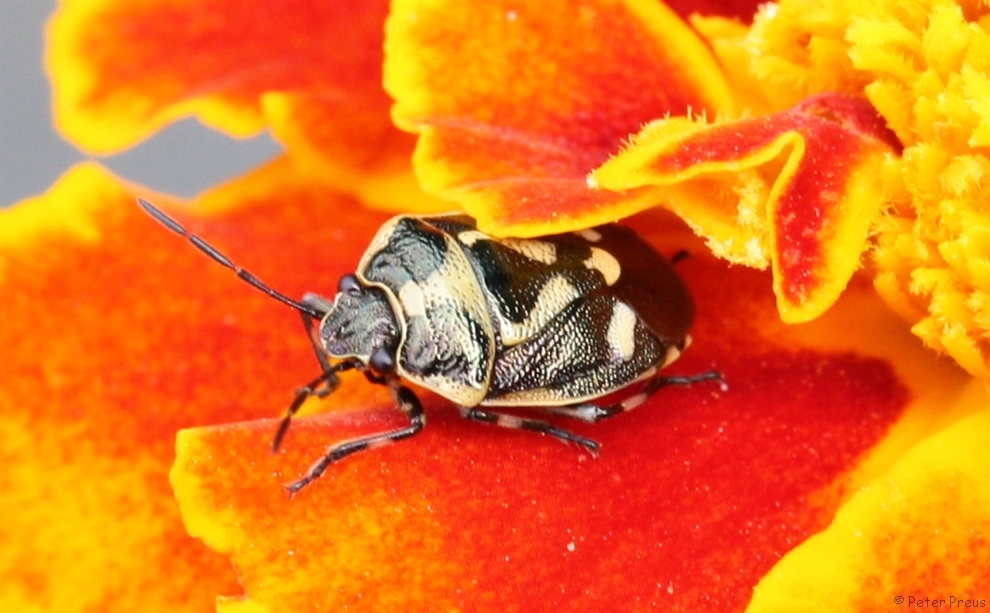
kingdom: Animalia
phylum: Arthropoda
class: Insecta
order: Hemiptera
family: Pentatomidae
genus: Eurydema
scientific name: Eurydema oleracea
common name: Cabbage bug
